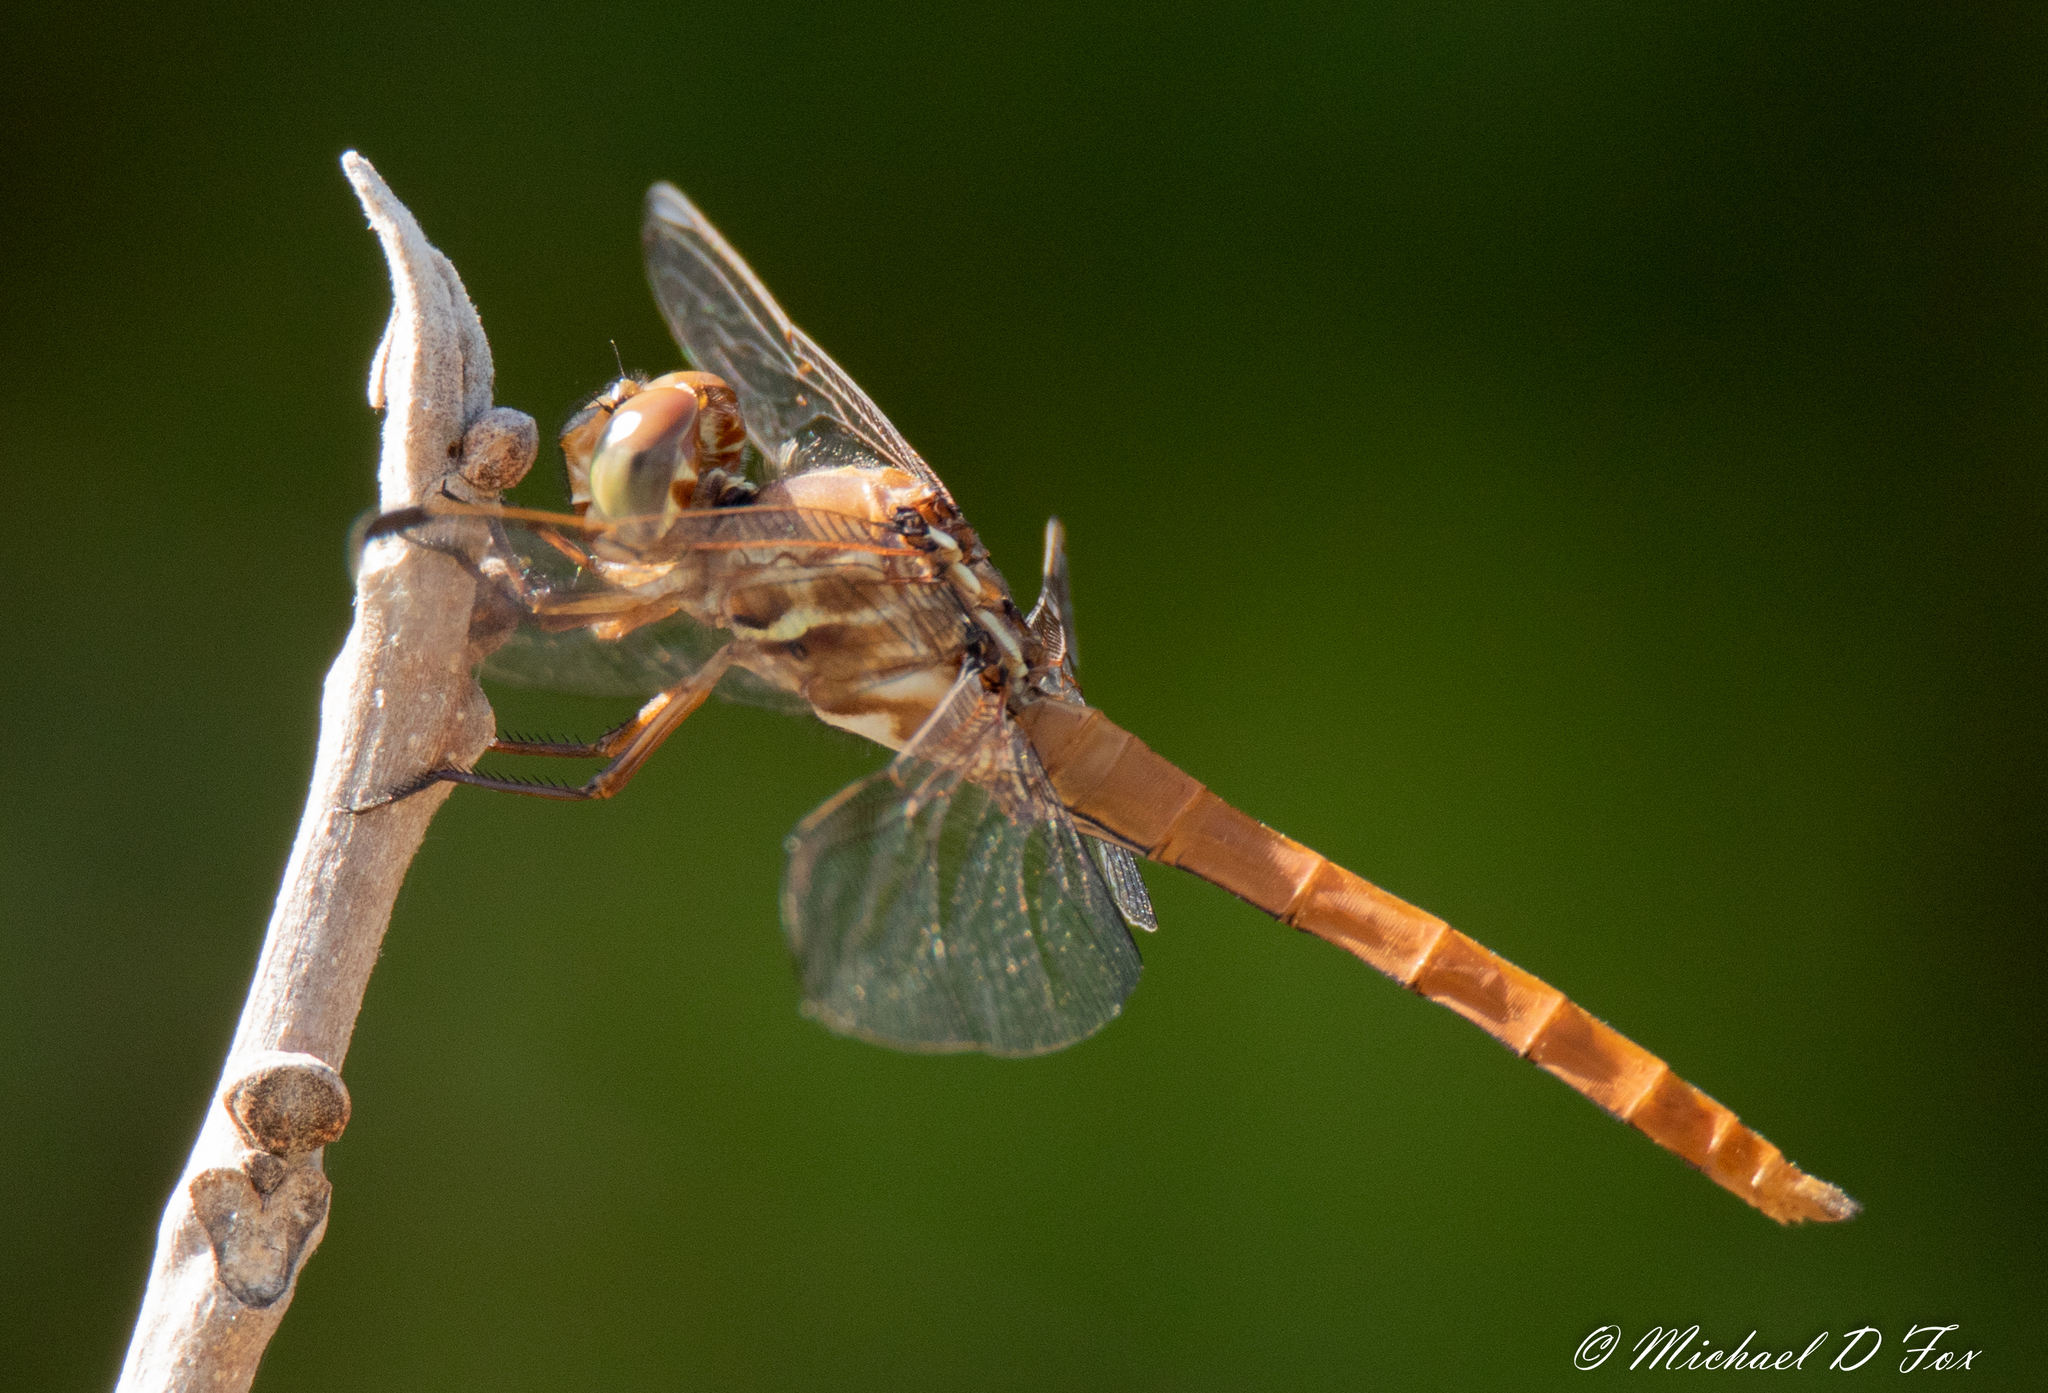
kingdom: Animalia
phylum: Arthropoda
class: Insecta
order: Odonata
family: Libellulidae
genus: Orthemis
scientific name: Orthemis ferruginea
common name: Roseate skimmer
